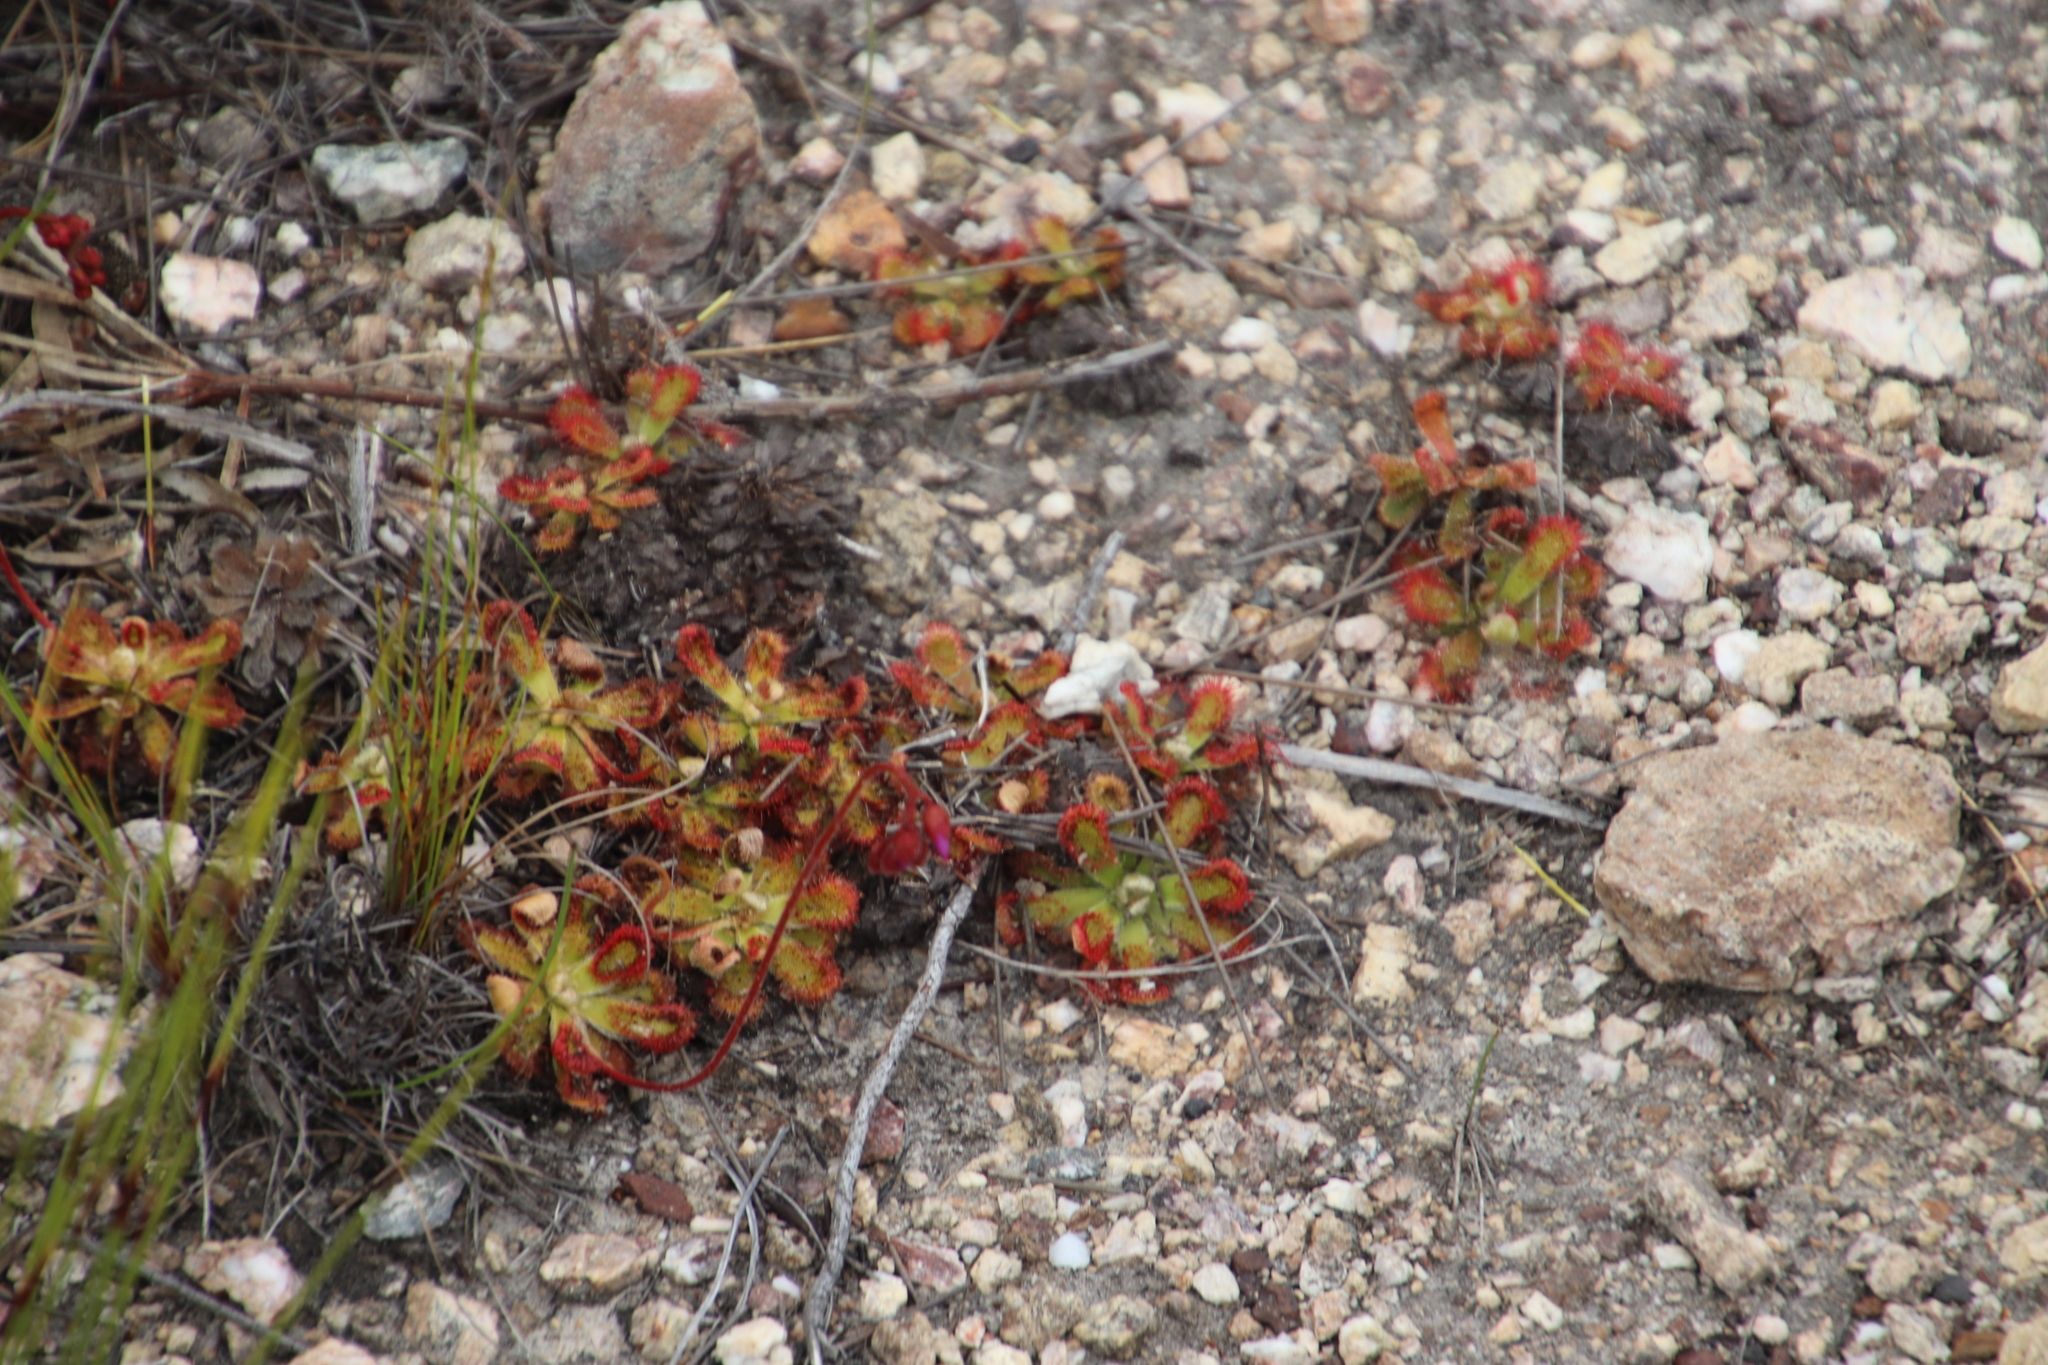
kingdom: Plantae
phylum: Tracheophyta
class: Magnoliopsida
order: Caryophyllales
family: Droseraceae
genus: Drosera
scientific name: Drosera aliciae
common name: Alice sundew
